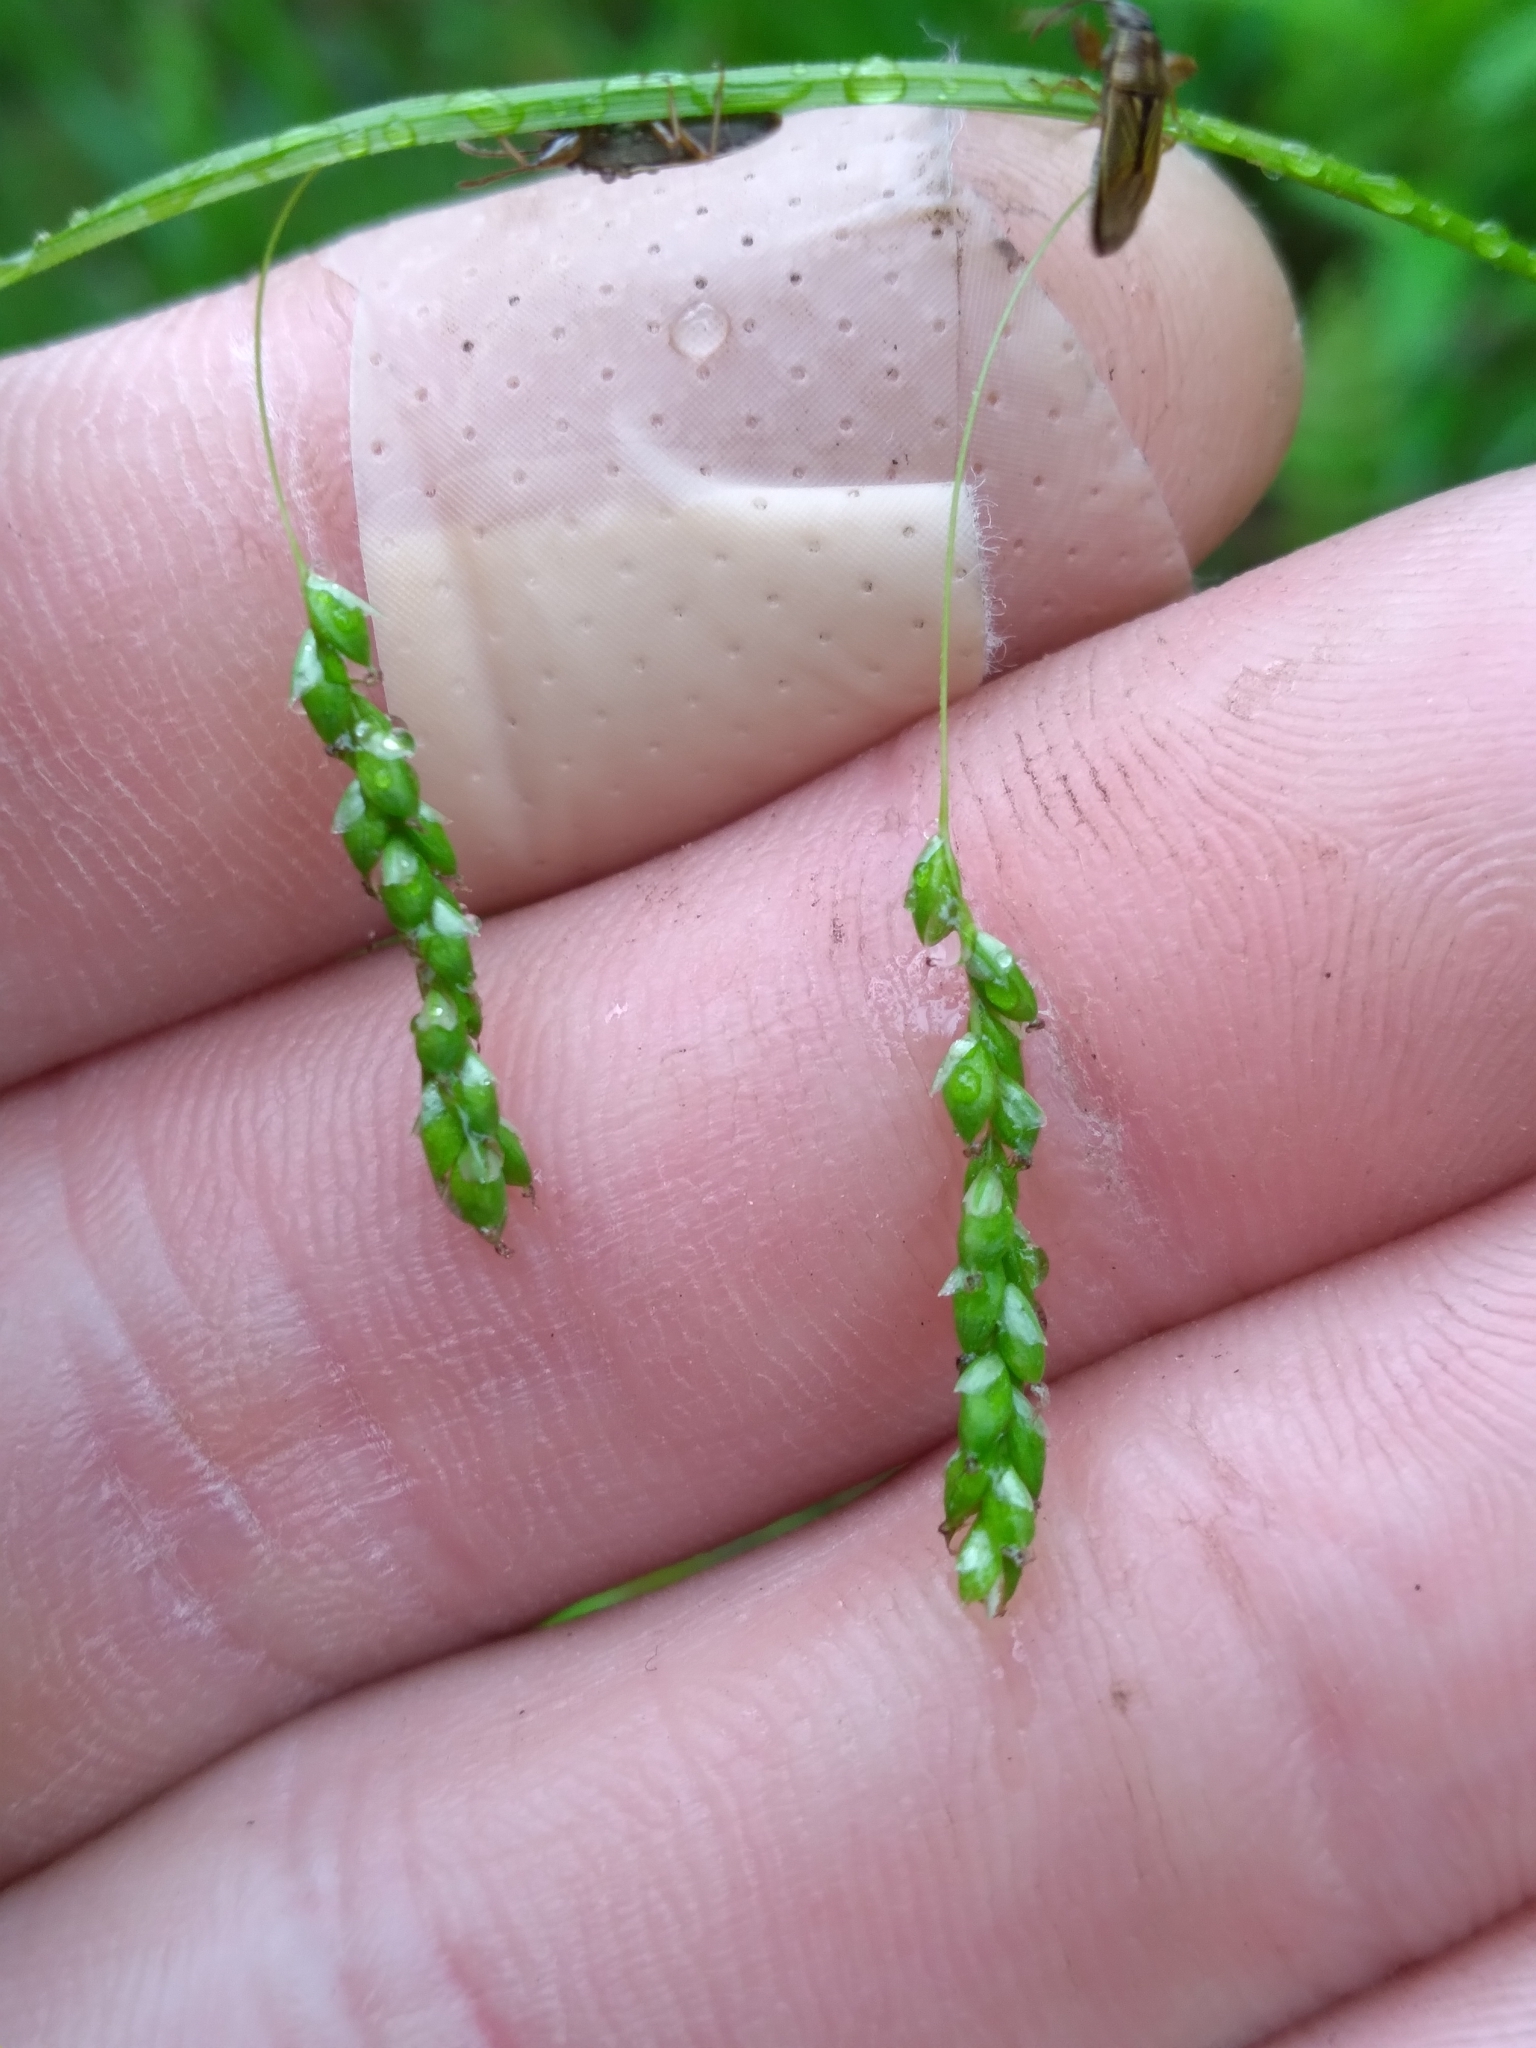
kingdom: Plantae
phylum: Tracheophyta
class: Liliopsida
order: Poales
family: Cyperaceae
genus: Carex
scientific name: Carex gracillima
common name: Graceful sedge
